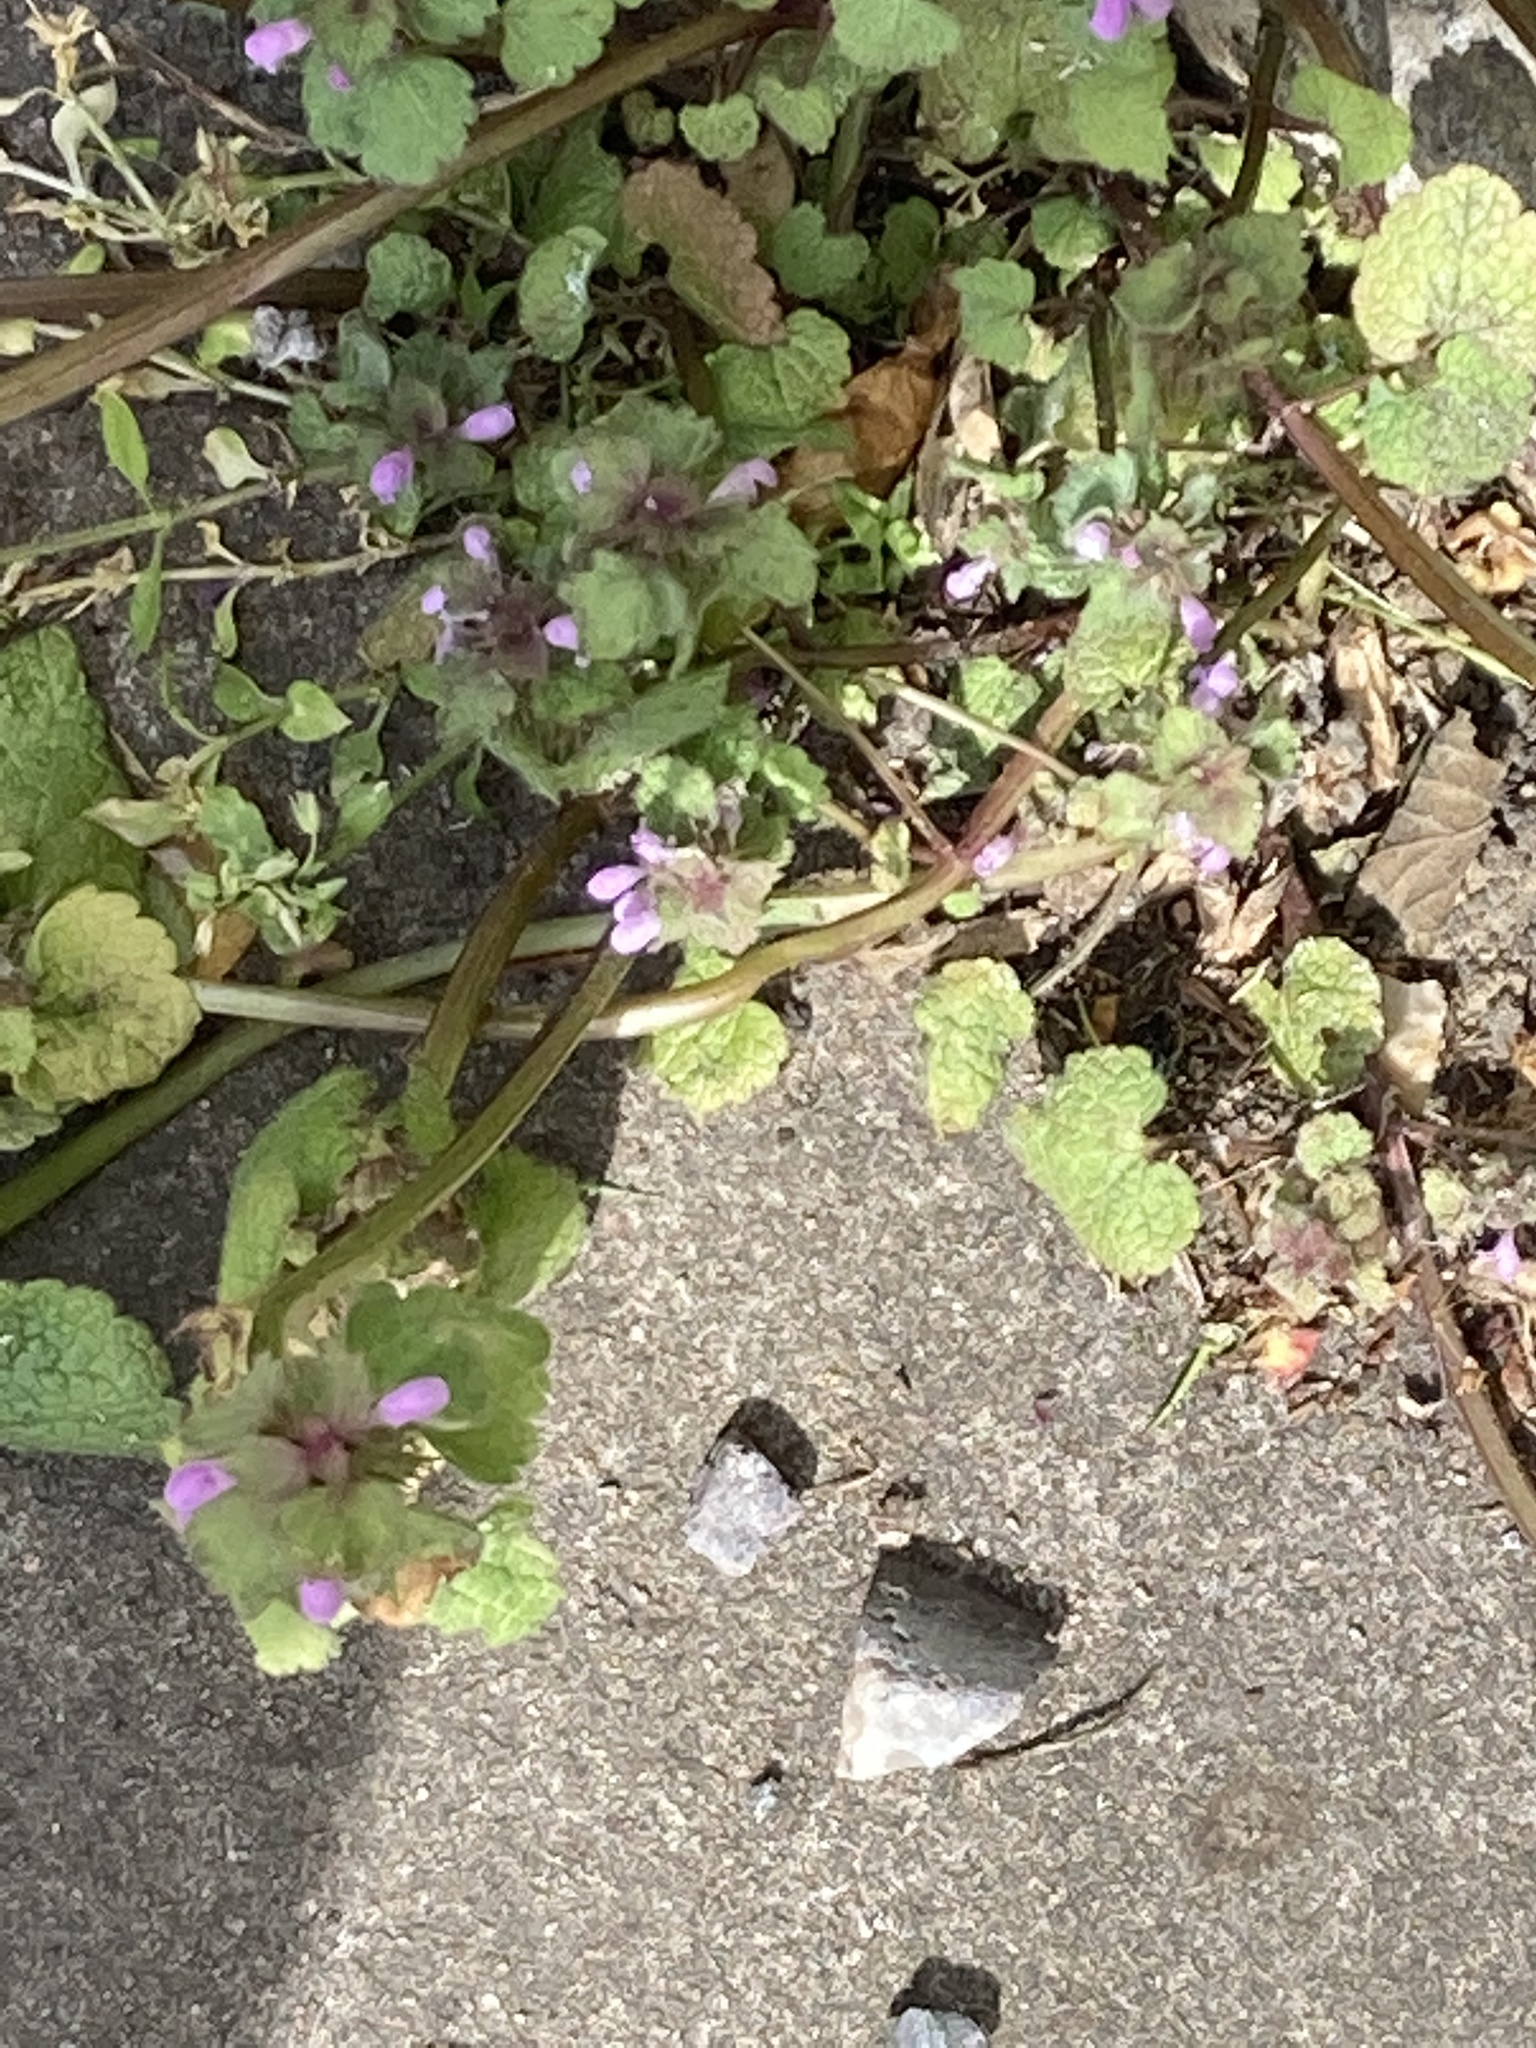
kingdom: Plantae
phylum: Tracheophyta
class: Magnoliopsida
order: Lamiales
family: Lamiaceae
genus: Lamium
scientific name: Lamium purpureum
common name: Red dead-nettle
